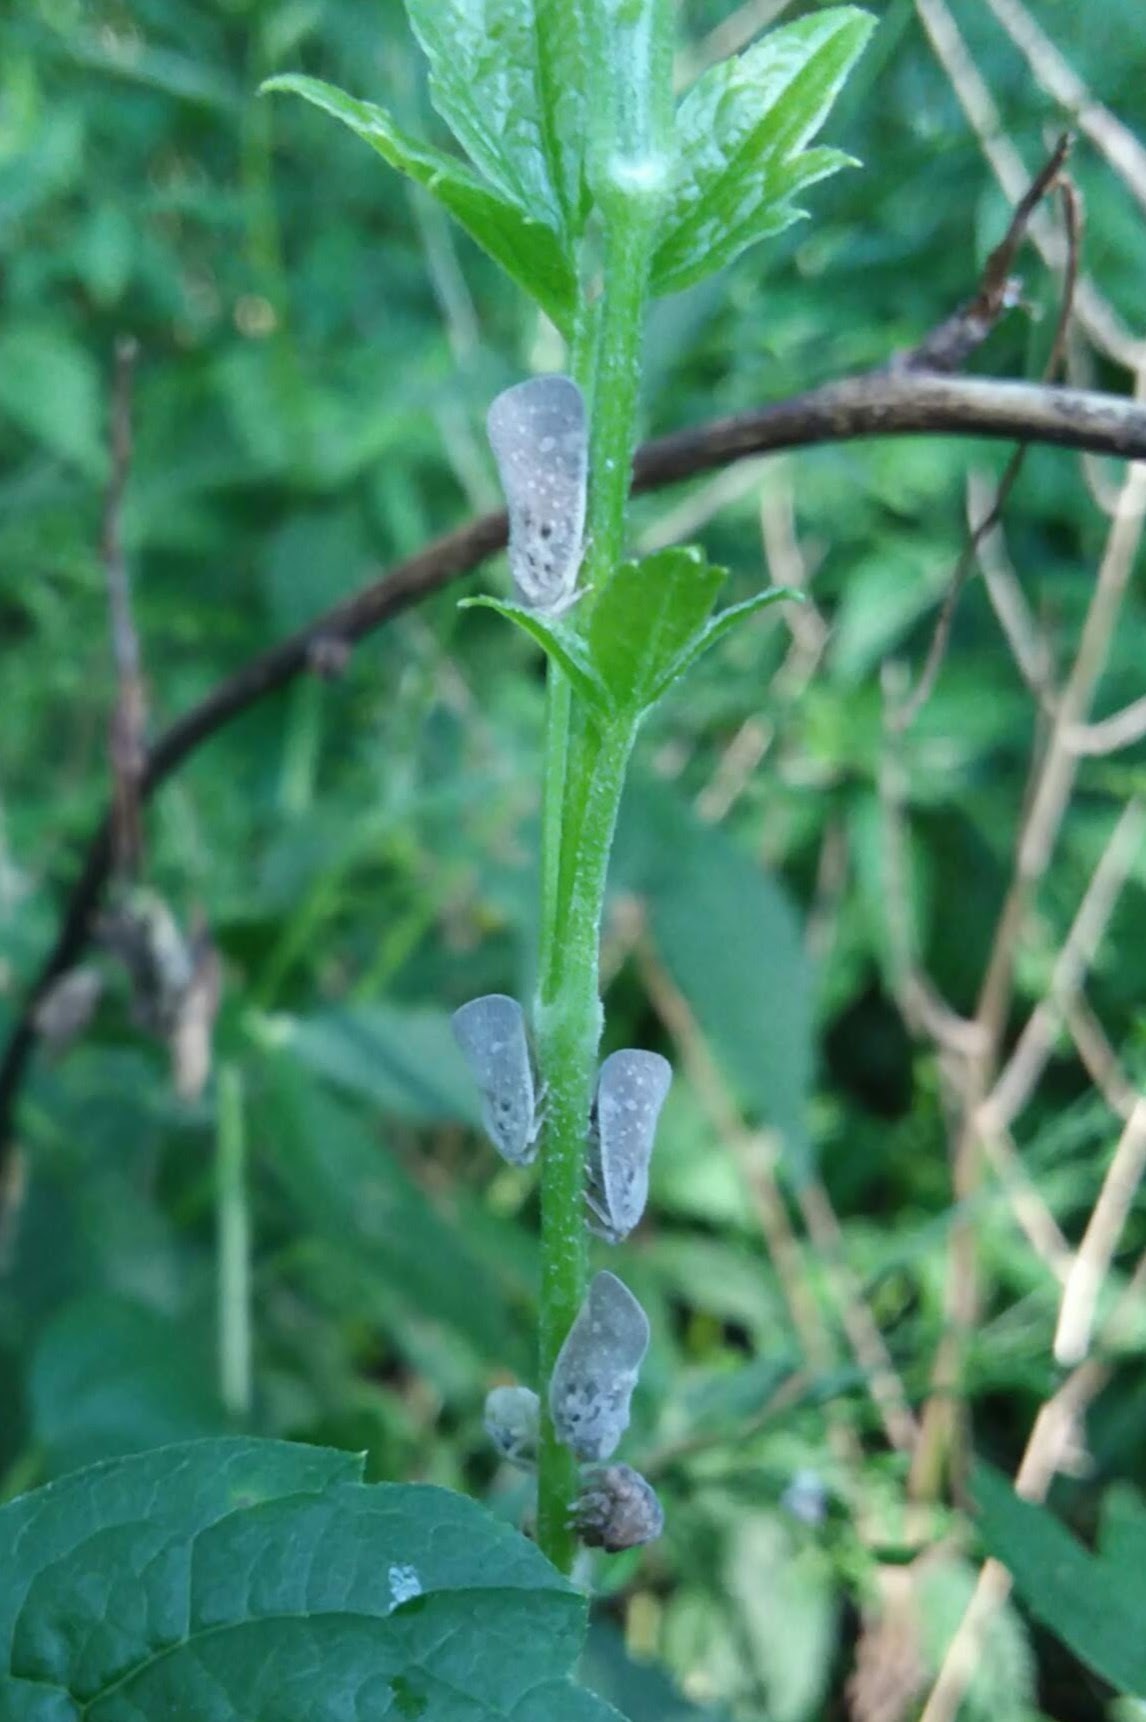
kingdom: Animalia
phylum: Arthropoda
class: Insecta
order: Hemiptera
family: Flatidae
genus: Metcalfa
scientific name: Metcalfa pruinosa
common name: Citrus flatid planthopper
